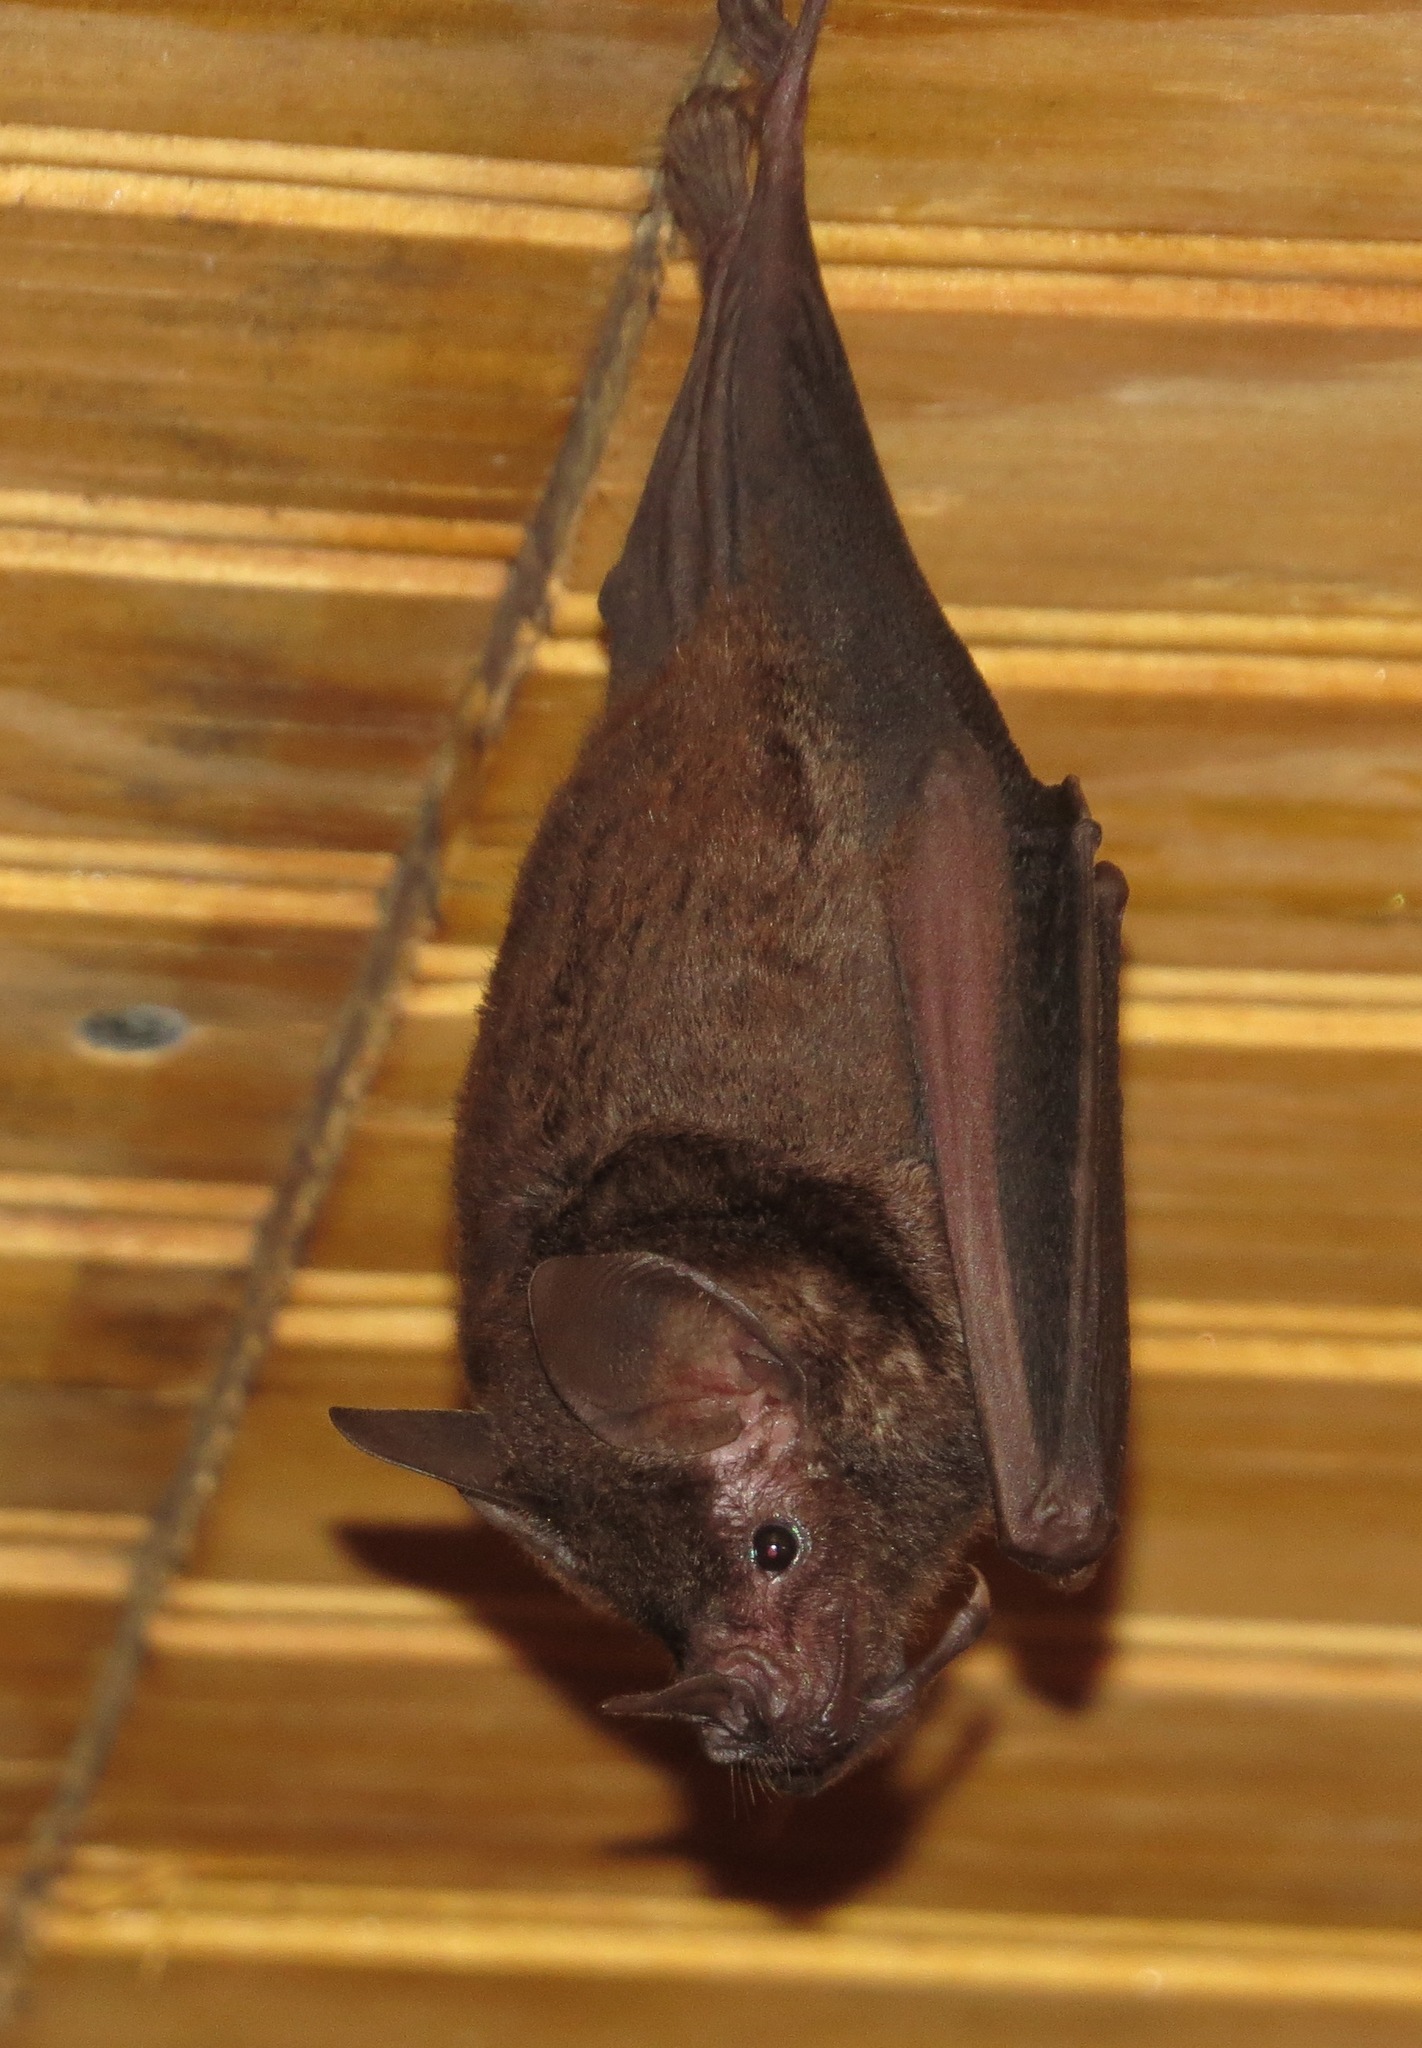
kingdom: Animalia
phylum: Chordata
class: Mammalia
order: Chiroptera
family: Phyllostomidae
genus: Carollia
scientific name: Carollia perspicillata
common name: Seba's short-tailed bat
